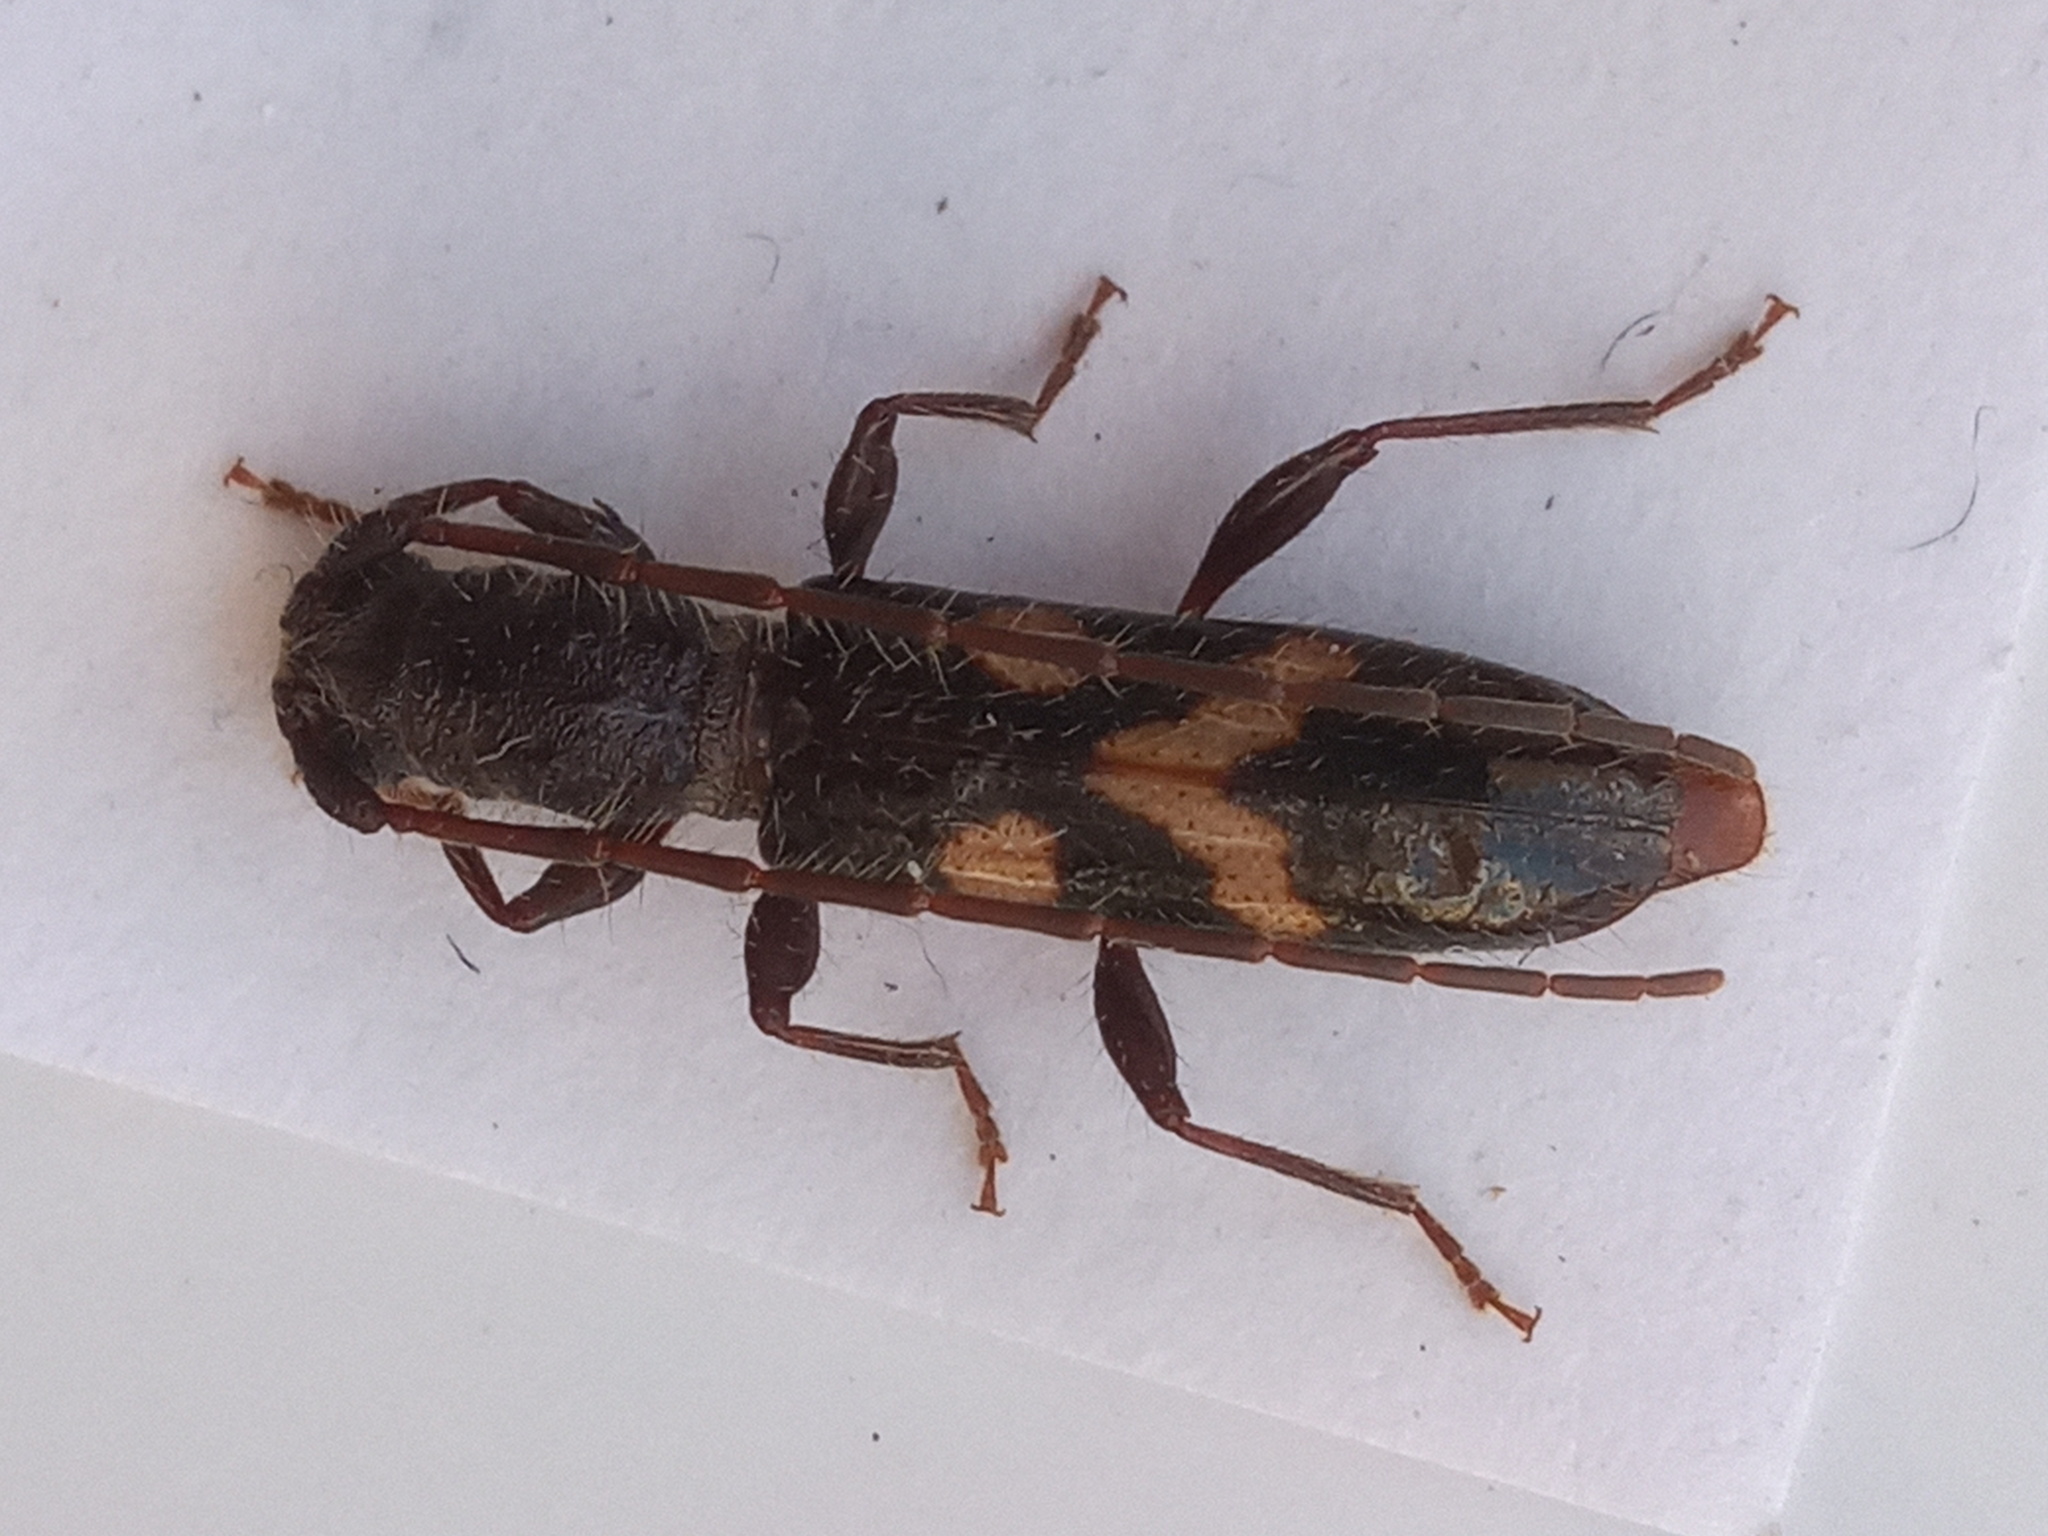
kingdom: Animalia
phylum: Arthropoda
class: Insecta
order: Coleoptera
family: Cerambycidae
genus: Heterachthes
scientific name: Heterachthes nobilis
